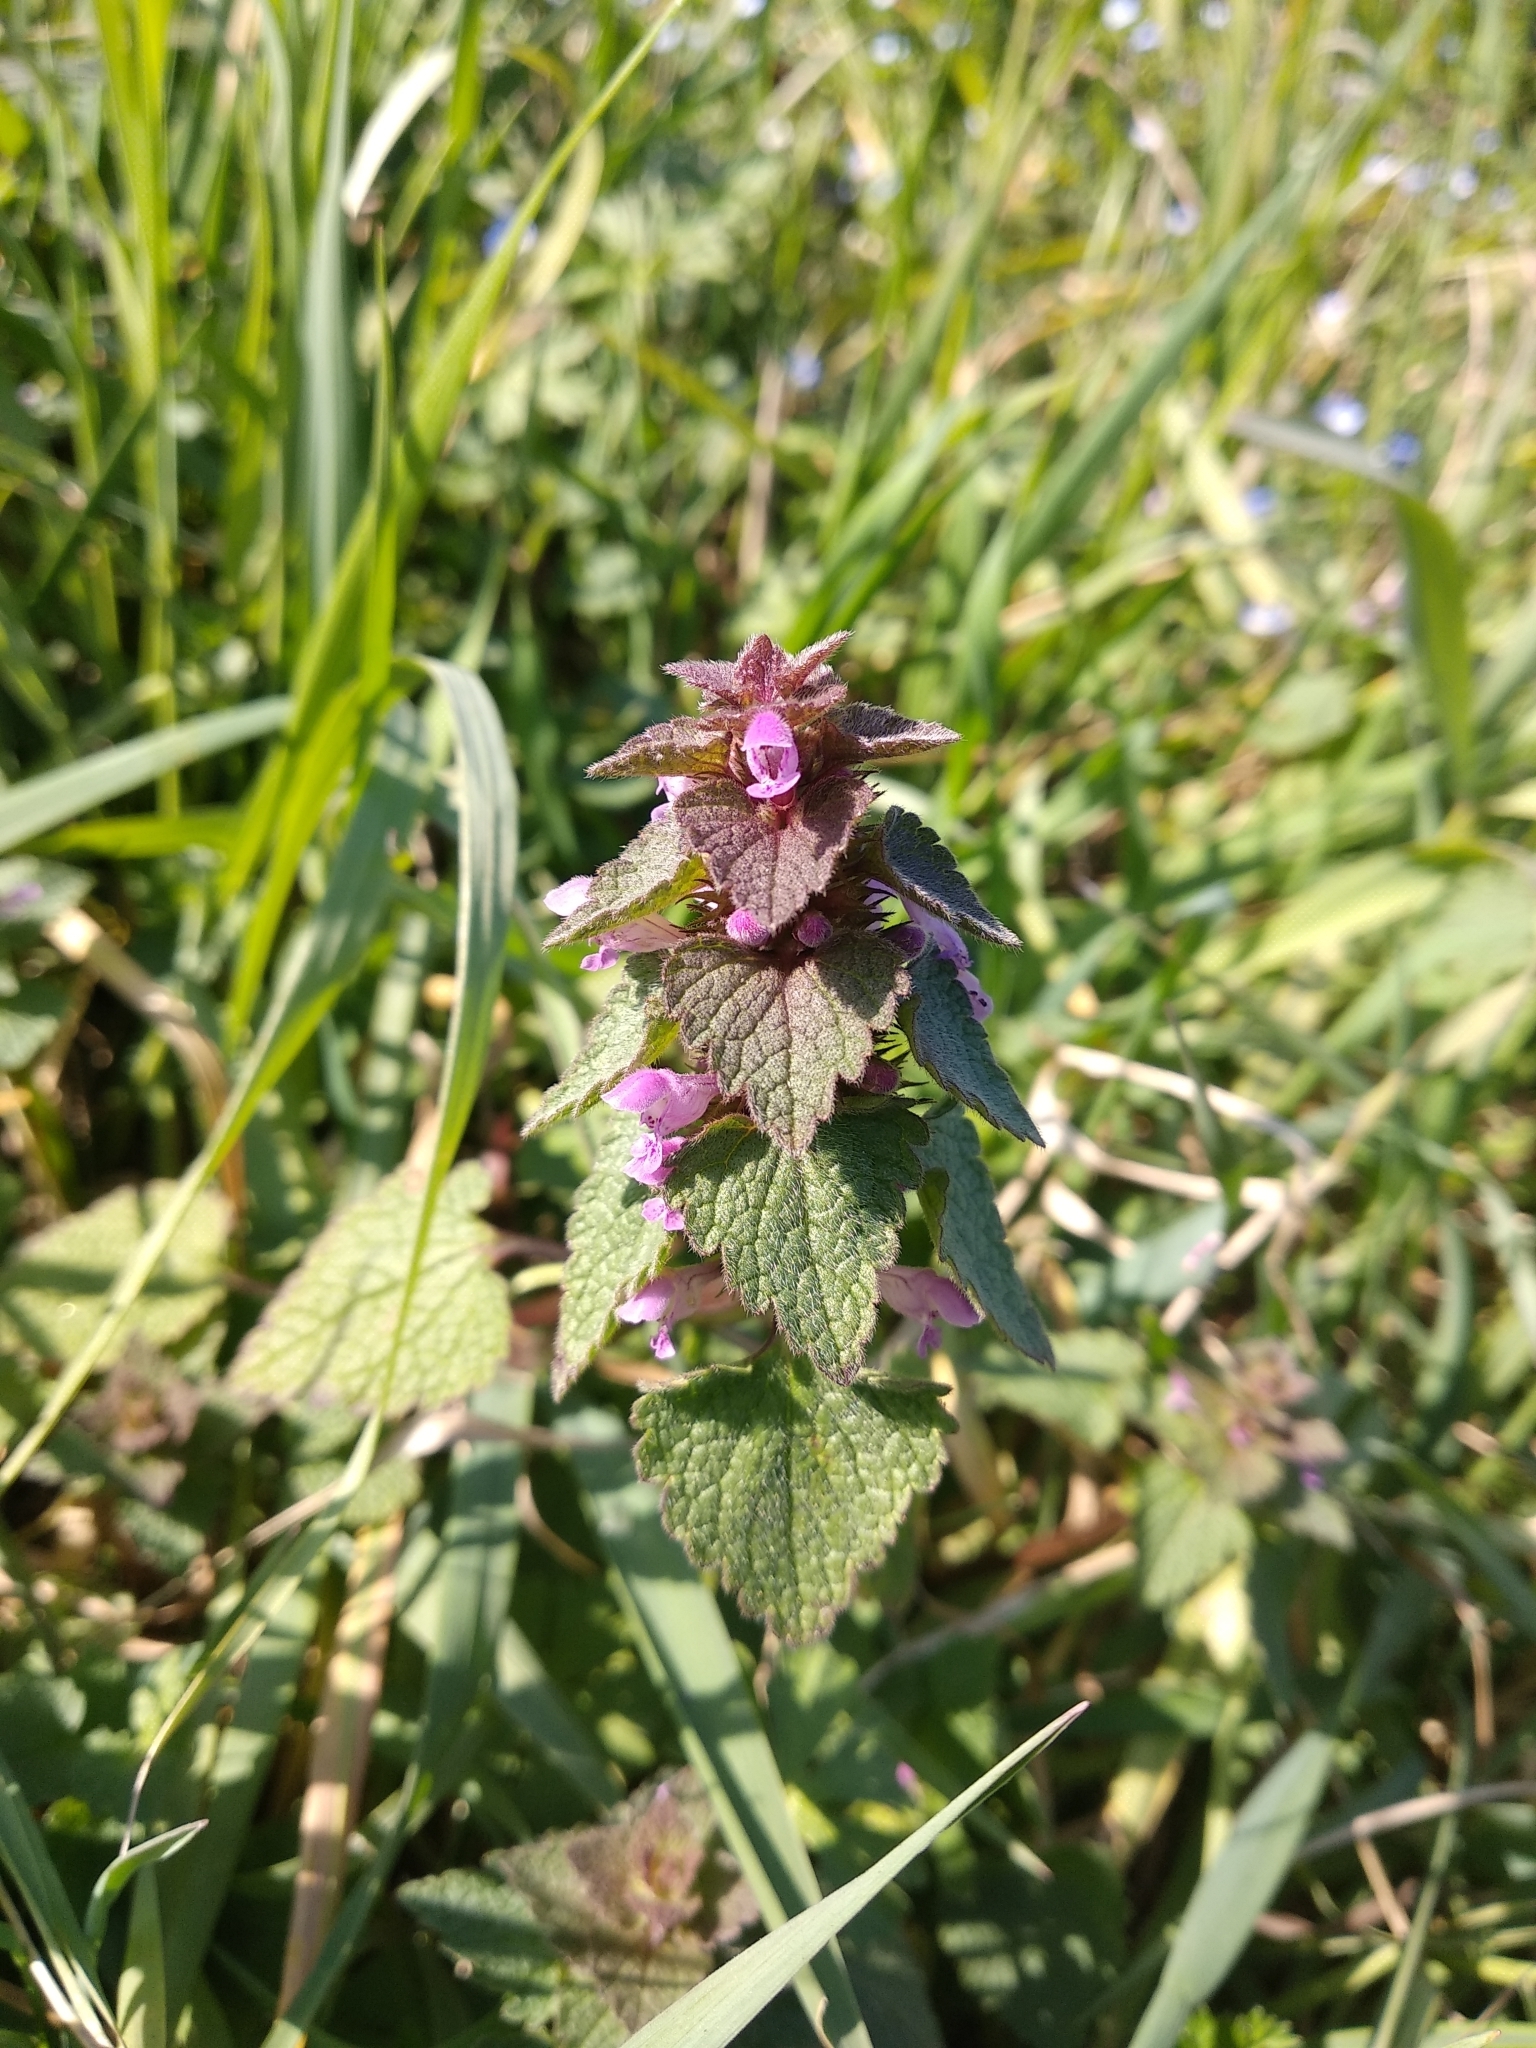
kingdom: Plantae
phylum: Tracheophyta
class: Magnoliopsida
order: Lamiales
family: Lamiaceae
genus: Lamium
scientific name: Lamium purpureum
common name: Red dead-nettle
